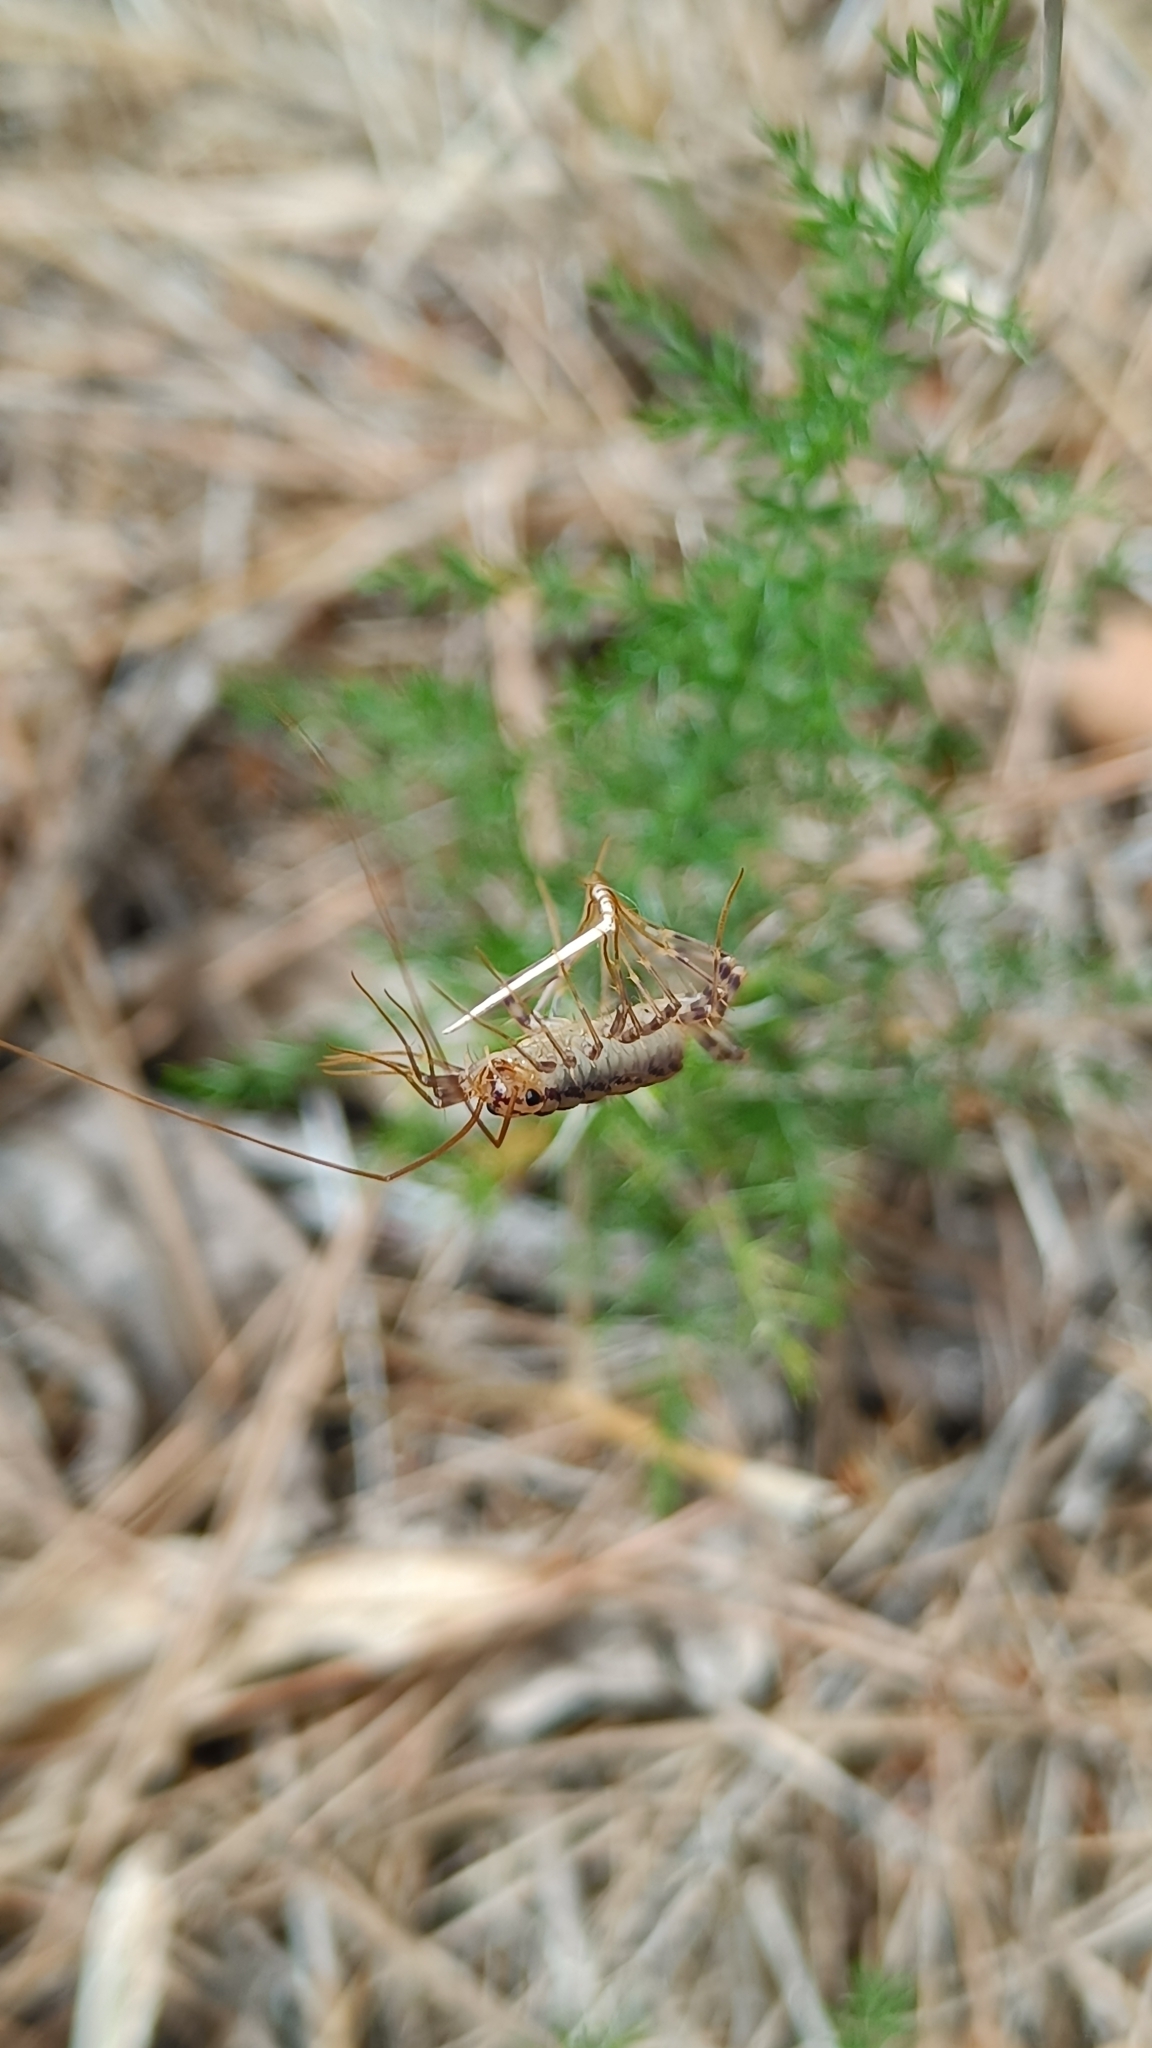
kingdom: Animalia
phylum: Arthropoda
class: Chilopoda
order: Scutigeromorpha
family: Scutigeridae
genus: Scutigera
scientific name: Scutigera coleoptrata
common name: House centipede
